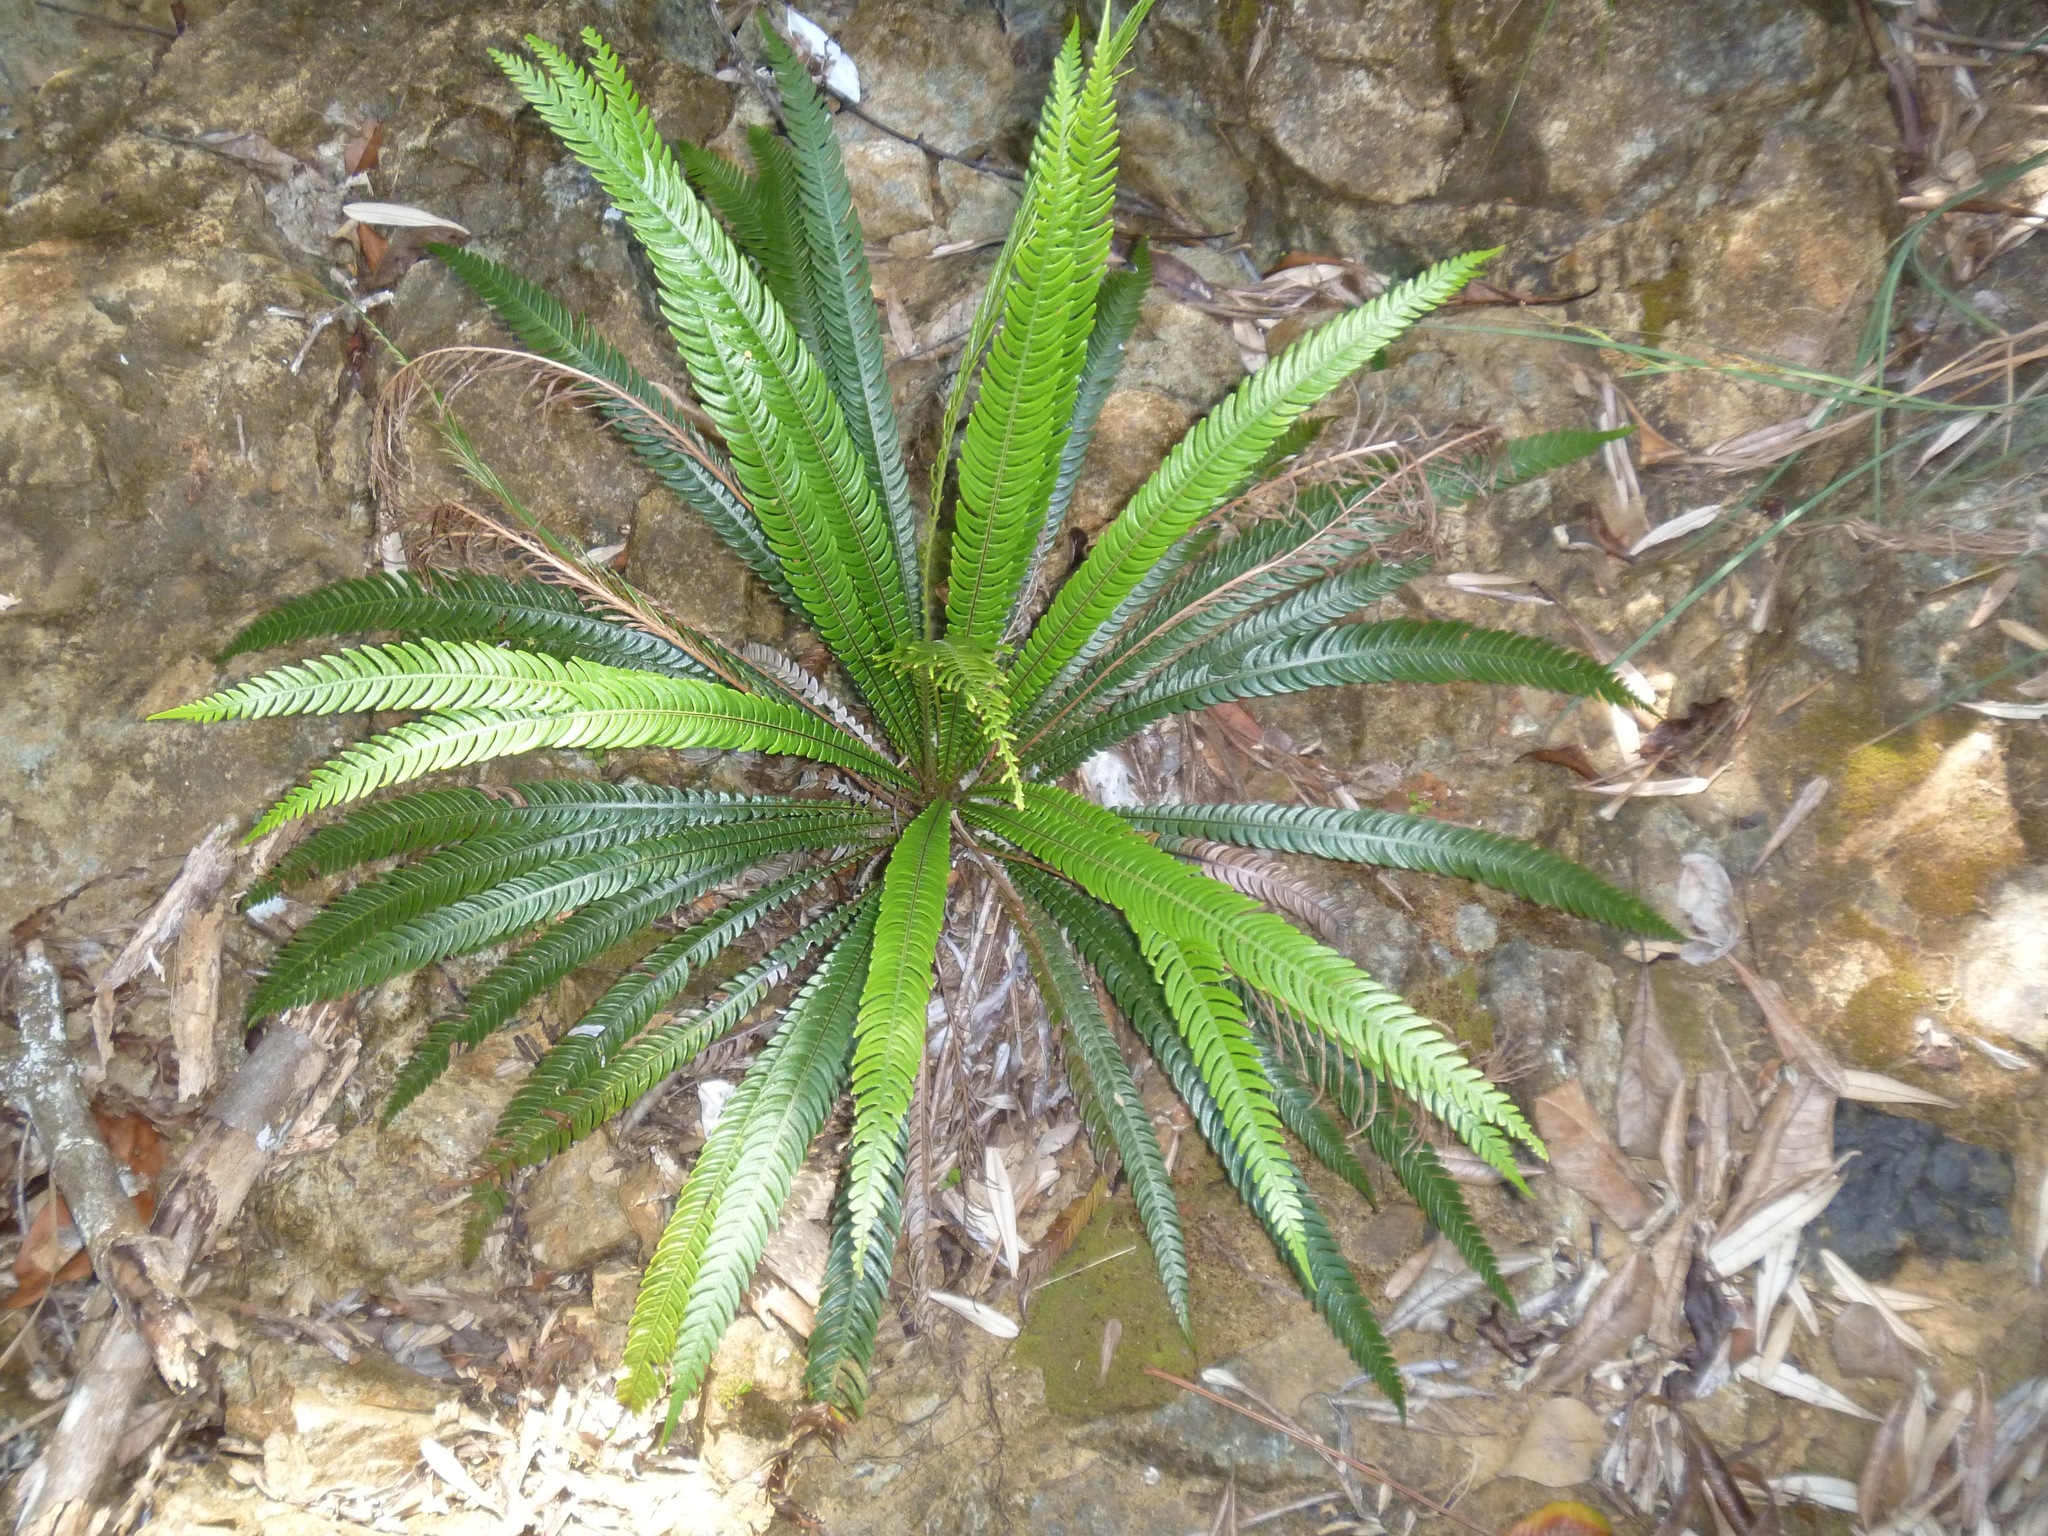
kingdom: Plantae
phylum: Tracheophyta
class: Polypodiopsida
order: Polypodiales
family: Blechnaceae
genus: Oceaniopteris
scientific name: Oceaniopteris obtusata
